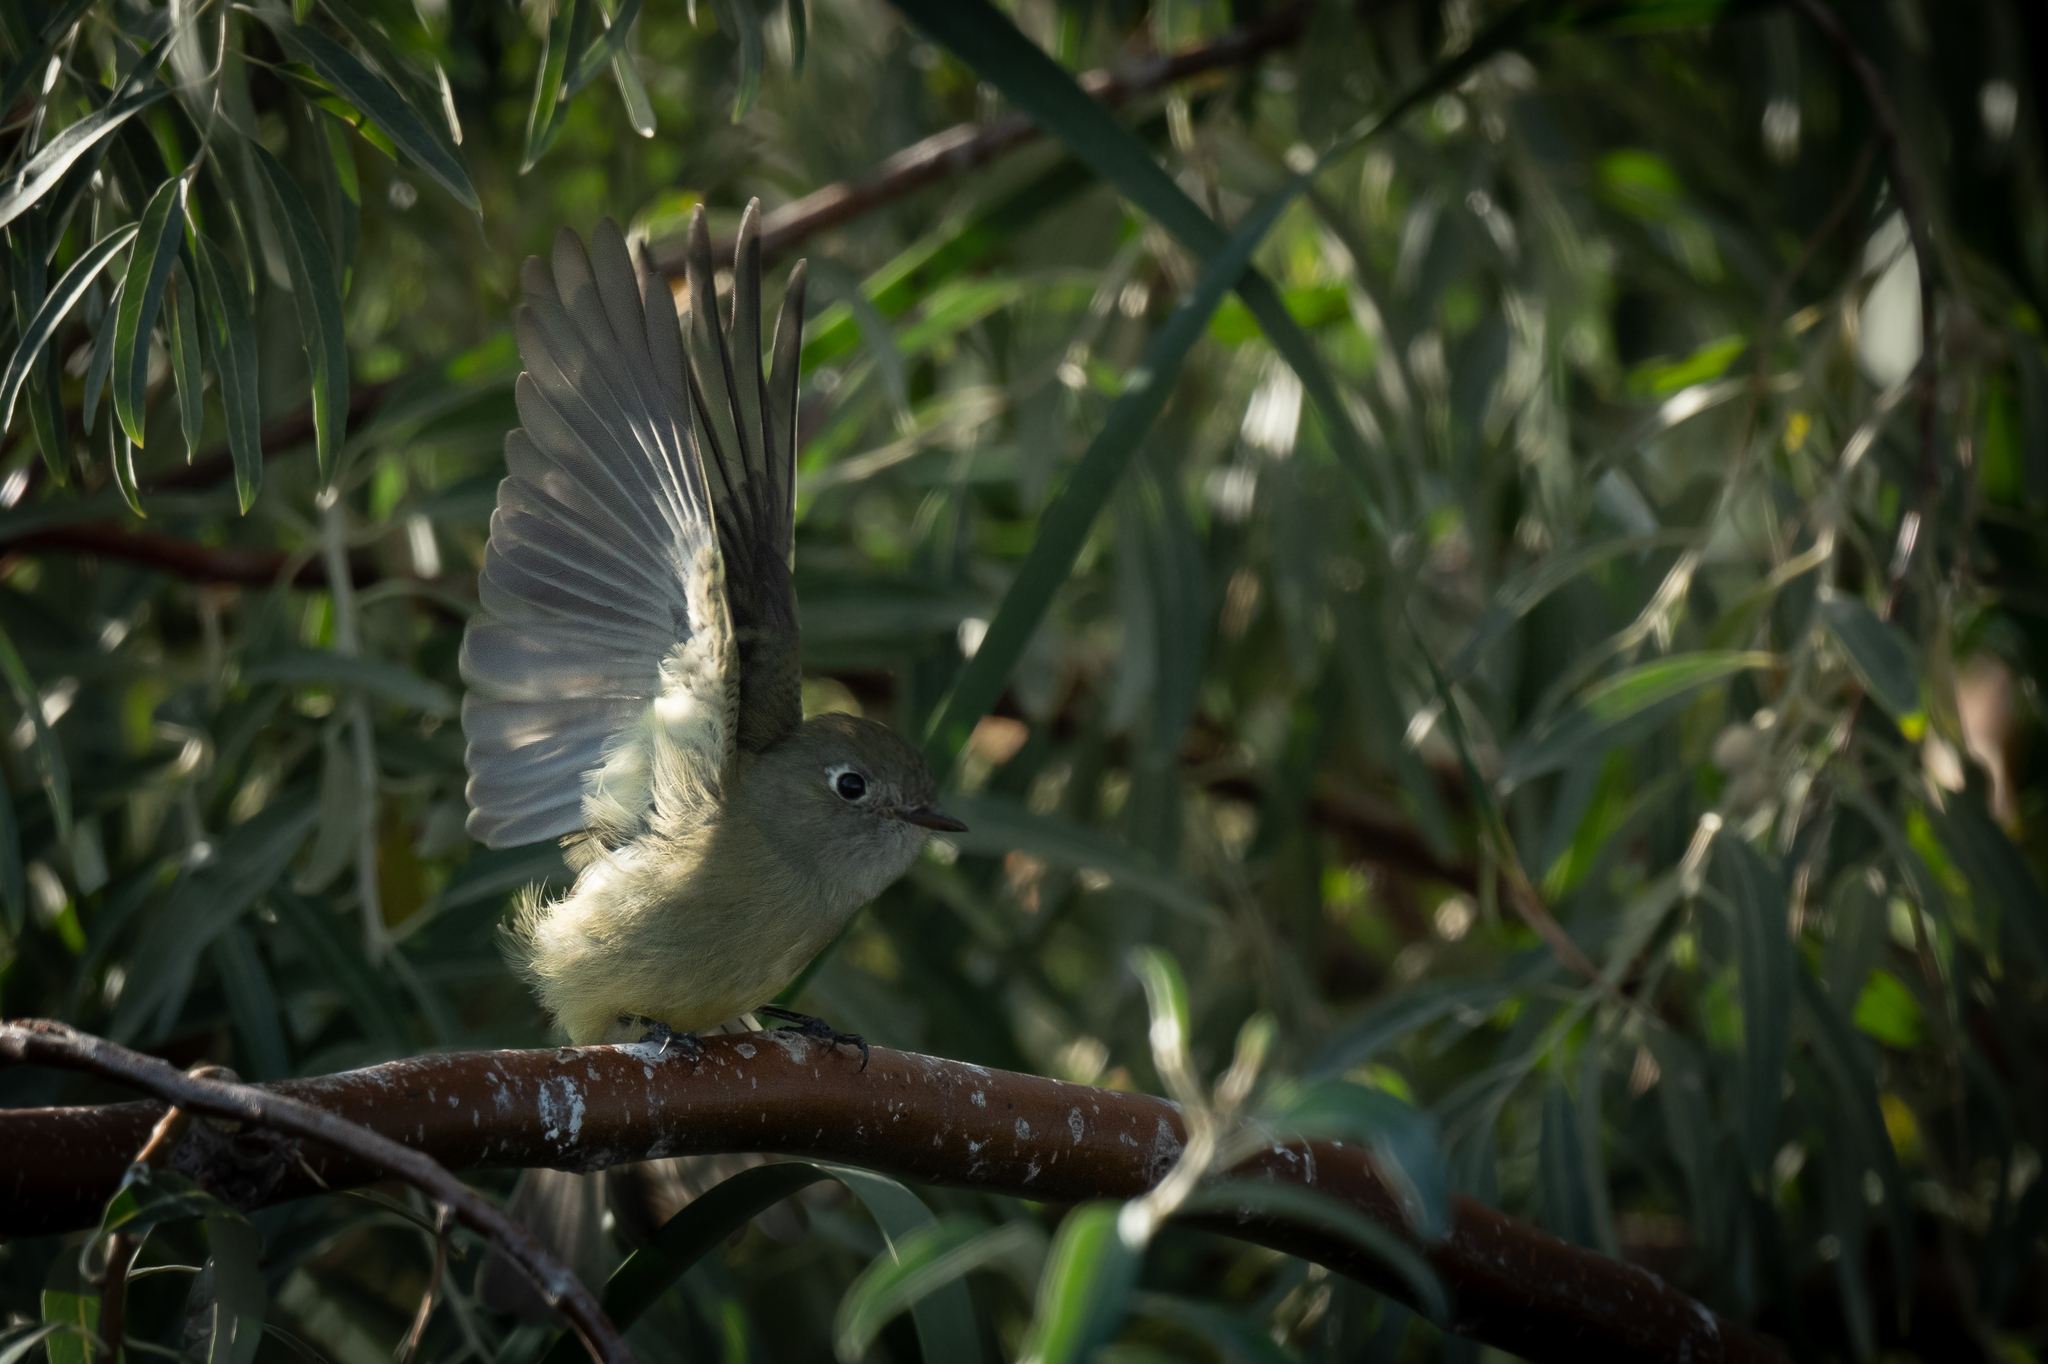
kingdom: Animalia
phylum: Chordata
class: Aves
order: Passeriformes
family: Tyrannidae
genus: Empidonax
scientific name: Empidonax hammondii
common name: Hammond's flycatcher
